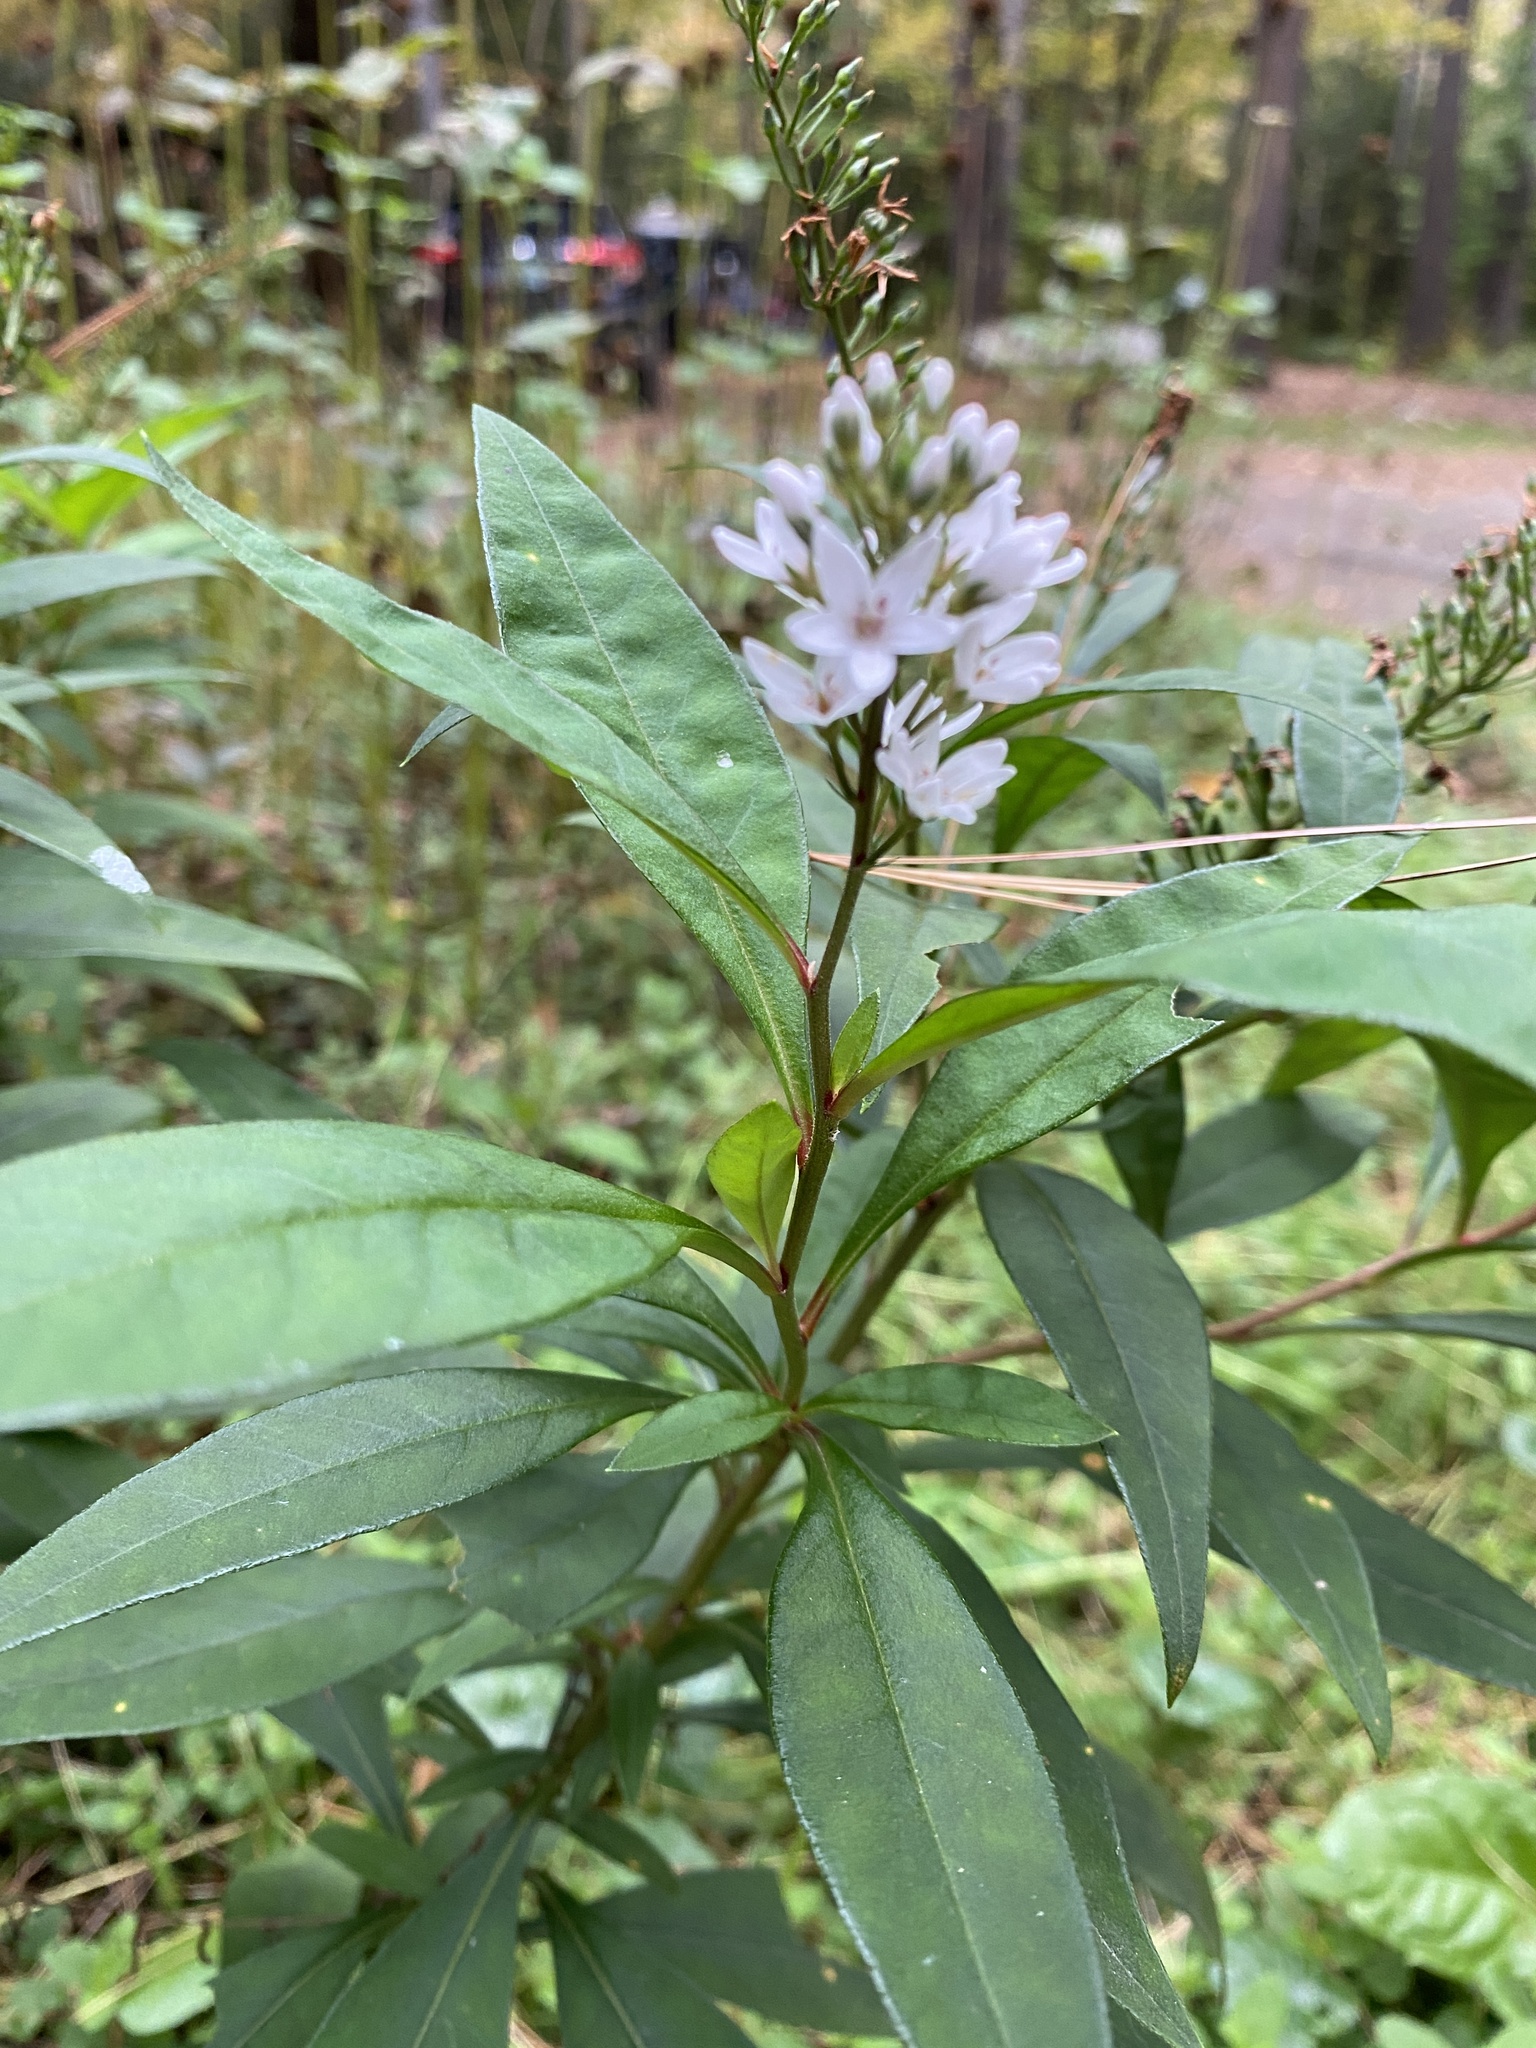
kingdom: Plantae
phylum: Tracheophyta
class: Magnoliopsida
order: Ericales
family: Primulaceae
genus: Lysimachia
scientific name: Lysimachia clethroides
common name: Gooseneck loosestrife
